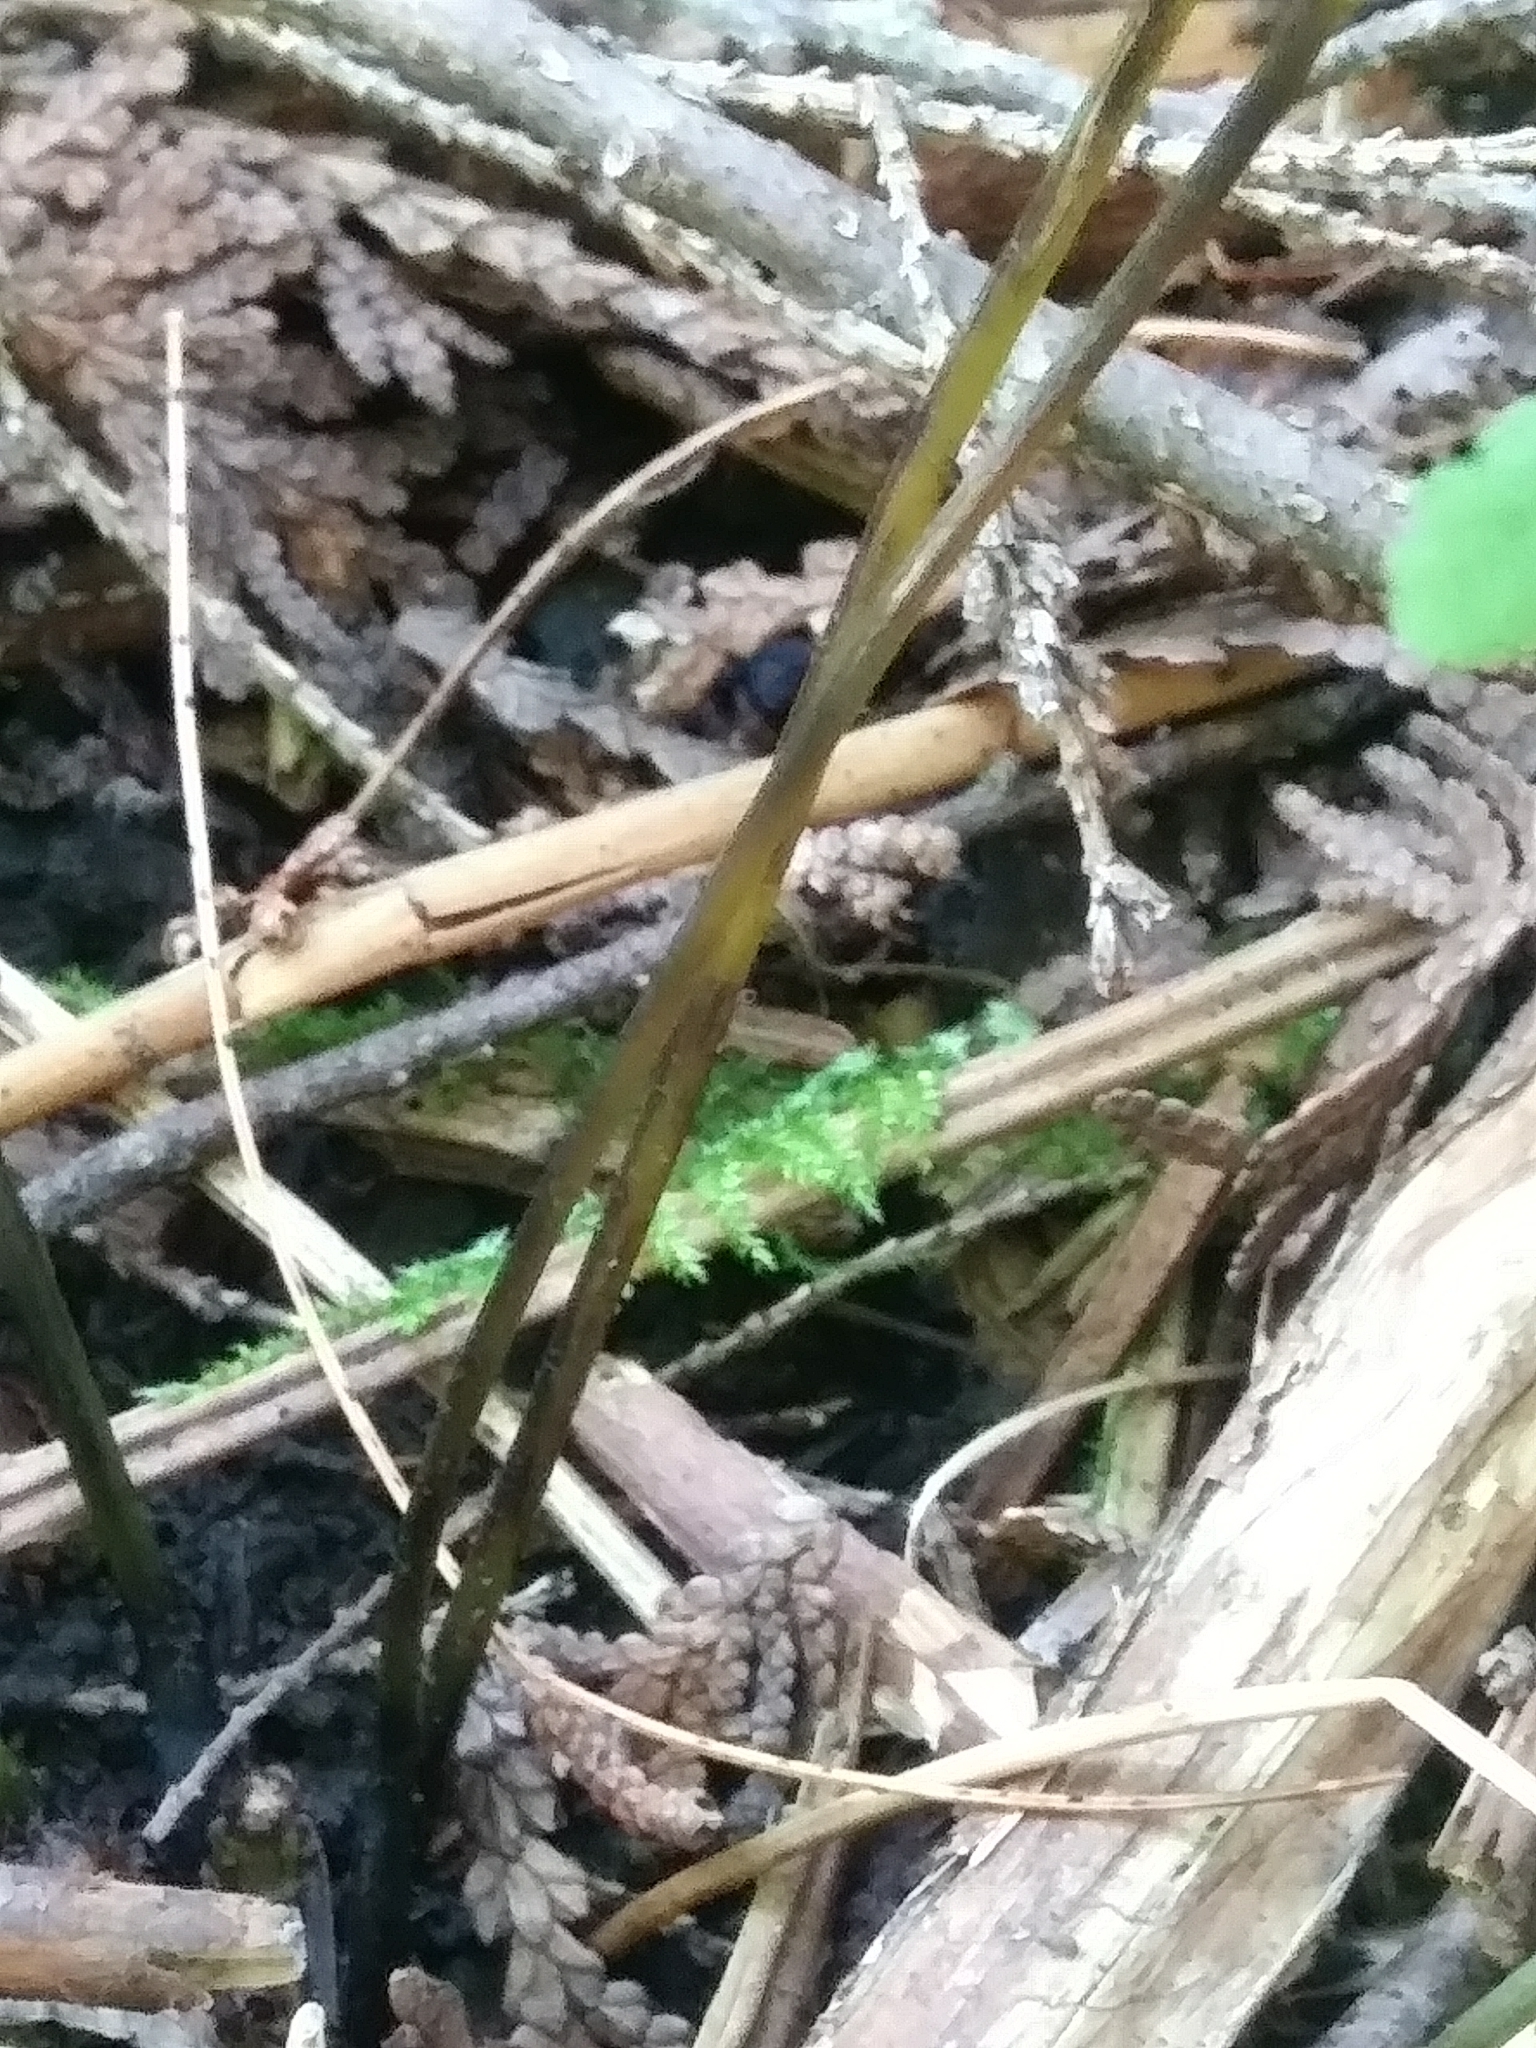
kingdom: Plantae
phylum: Tracheophyta
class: Polypodiopsida
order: Polypodiales
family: Cystopteridaceae
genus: Cystopteris
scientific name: Cystopteris bulbifera
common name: Bulblet bladder fern
